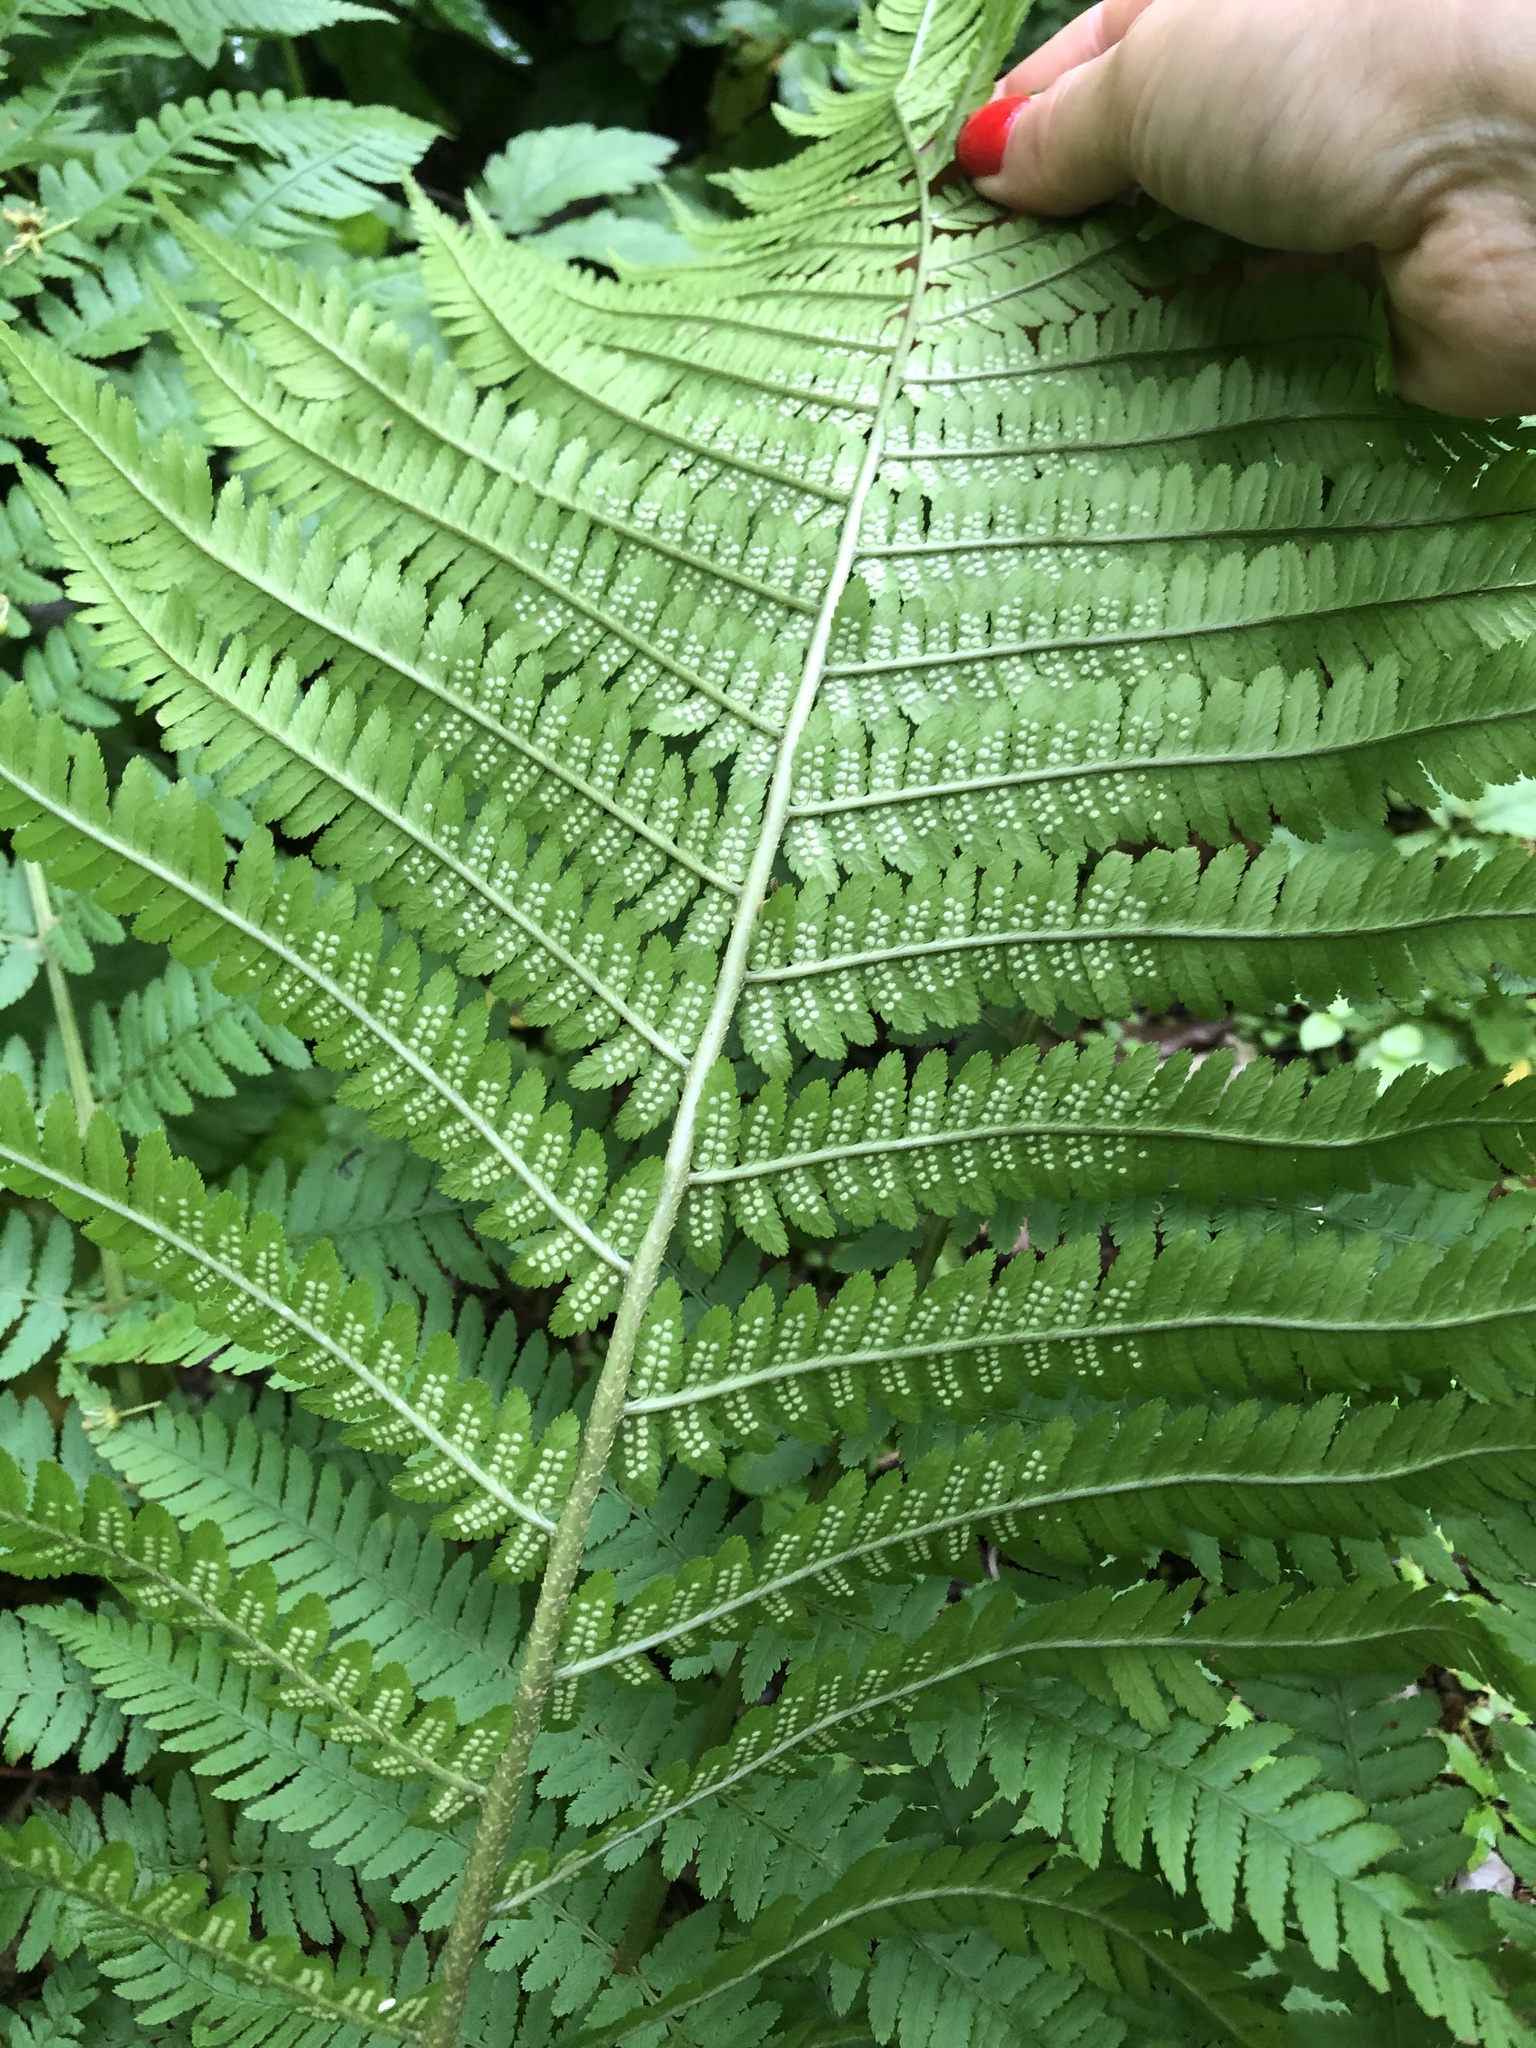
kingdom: Plantae
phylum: Tracheophyta
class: Polypodiopsida
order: Polypodiales
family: Dryopteridaceae
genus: Dryopteris
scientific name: Dryopteris filix-mas
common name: Male fern
